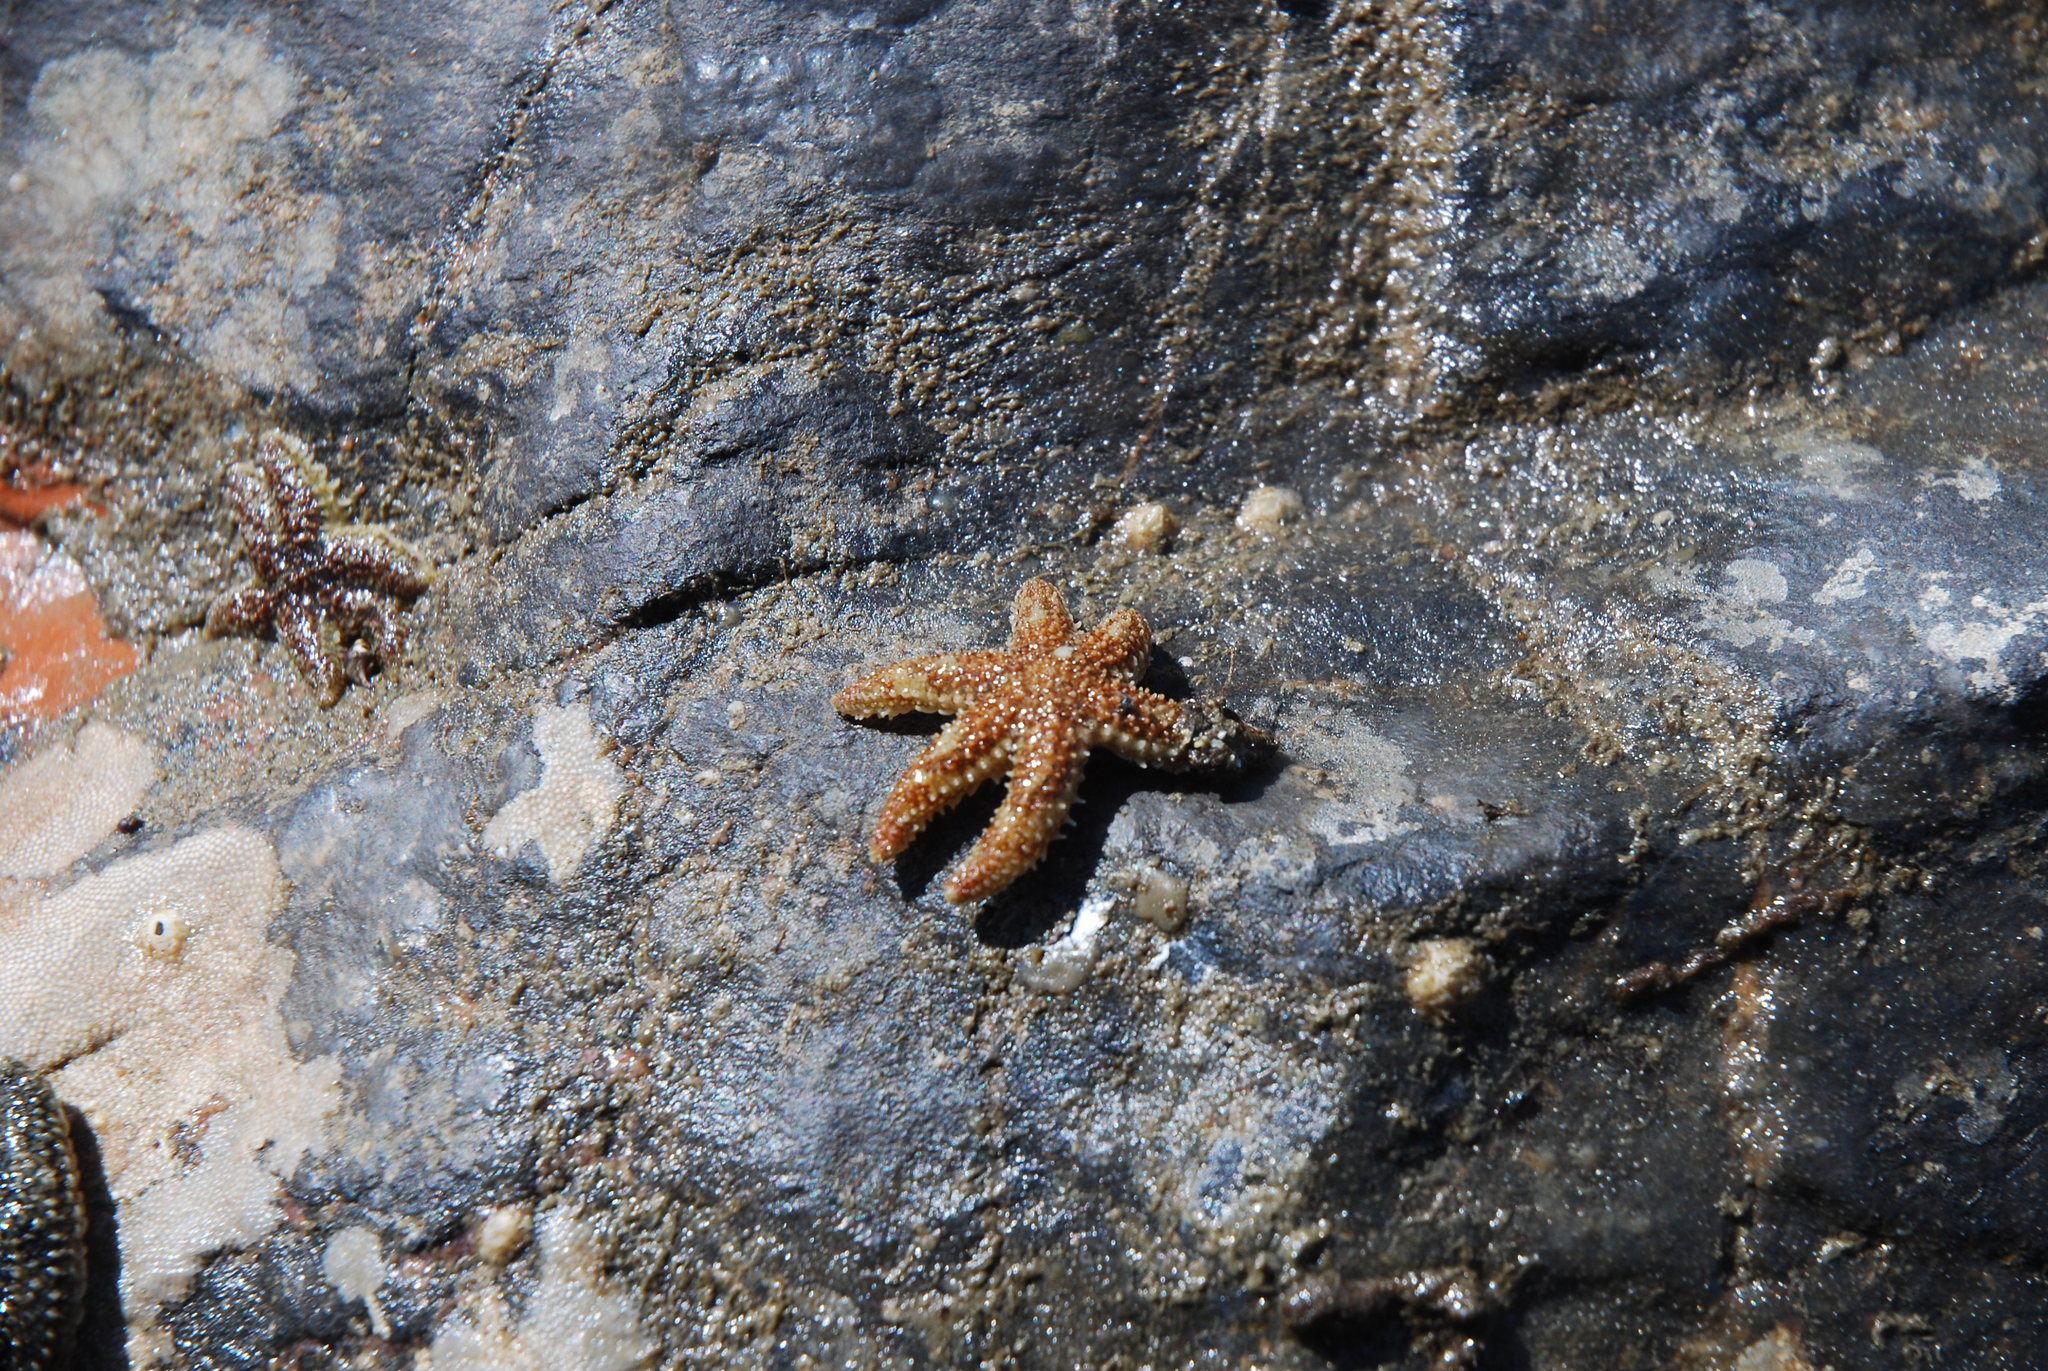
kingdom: Animalia
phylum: Echinodermata
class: Asteroidea
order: Forcipulatida
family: Asteriidae
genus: Leptasterias
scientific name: Leptasterias hexactis
